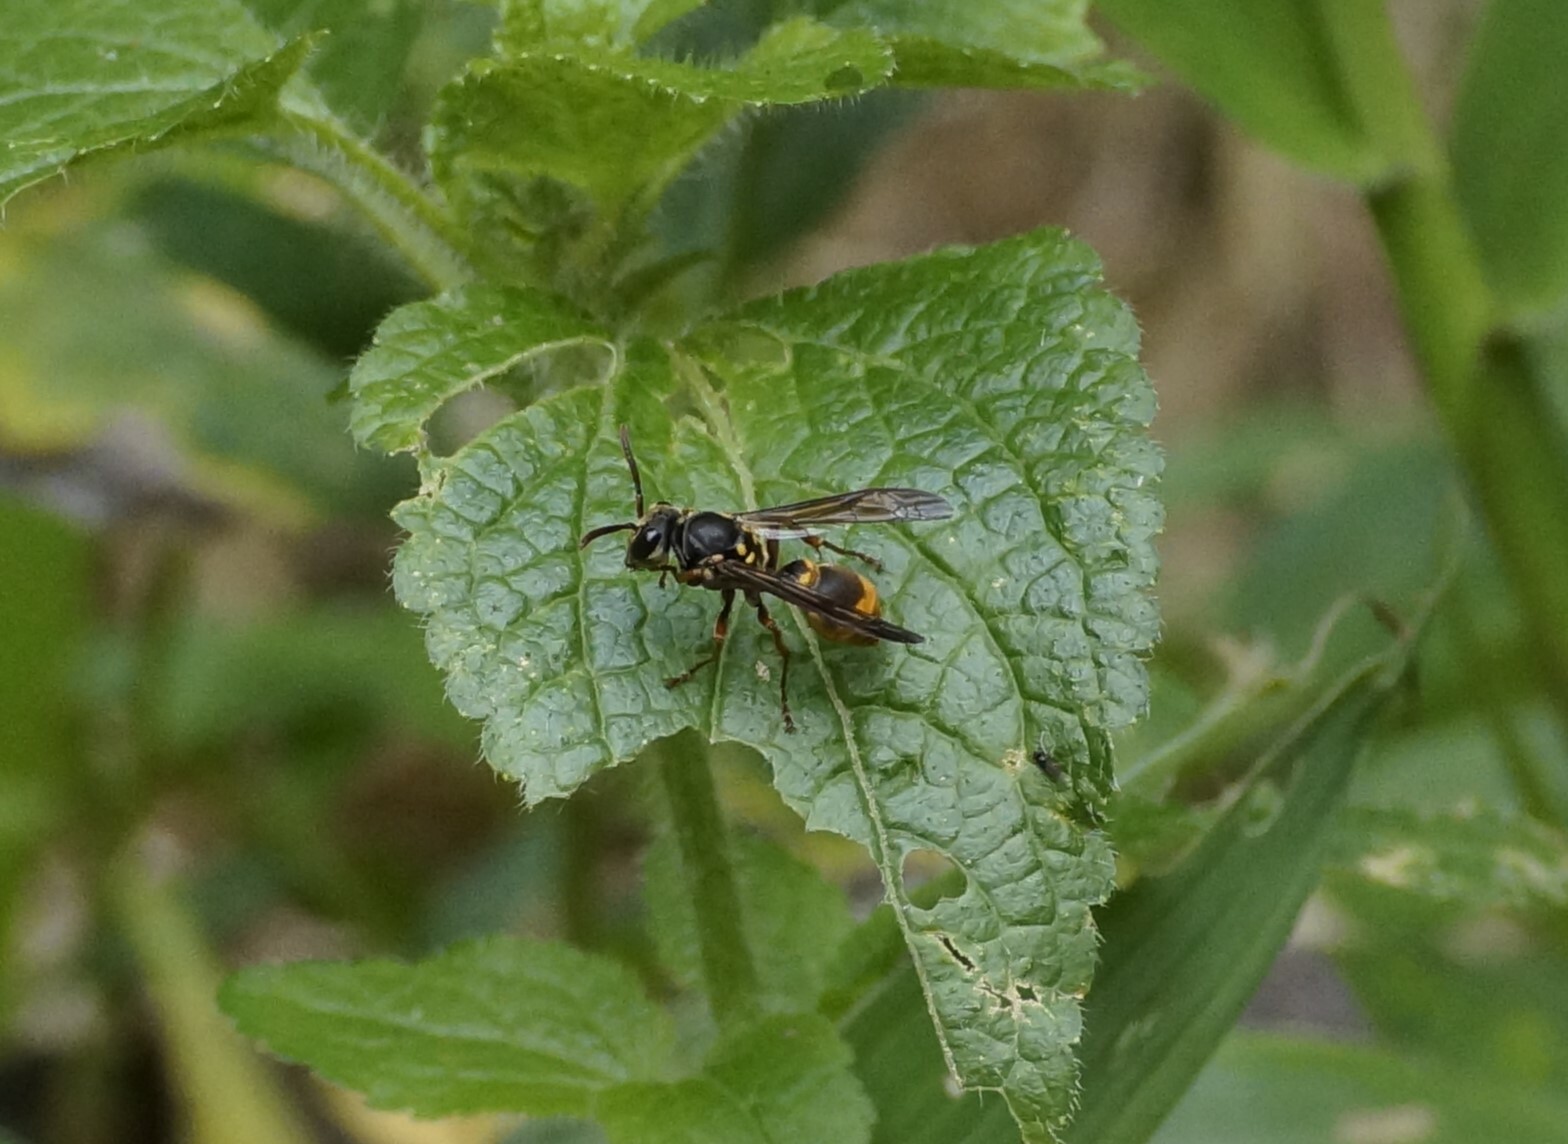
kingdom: Animalia
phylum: Arthropoda
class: Insecta
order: Hymenoptera
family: Vespidae
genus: Ropalidia
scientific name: Ropalidia socialistica
